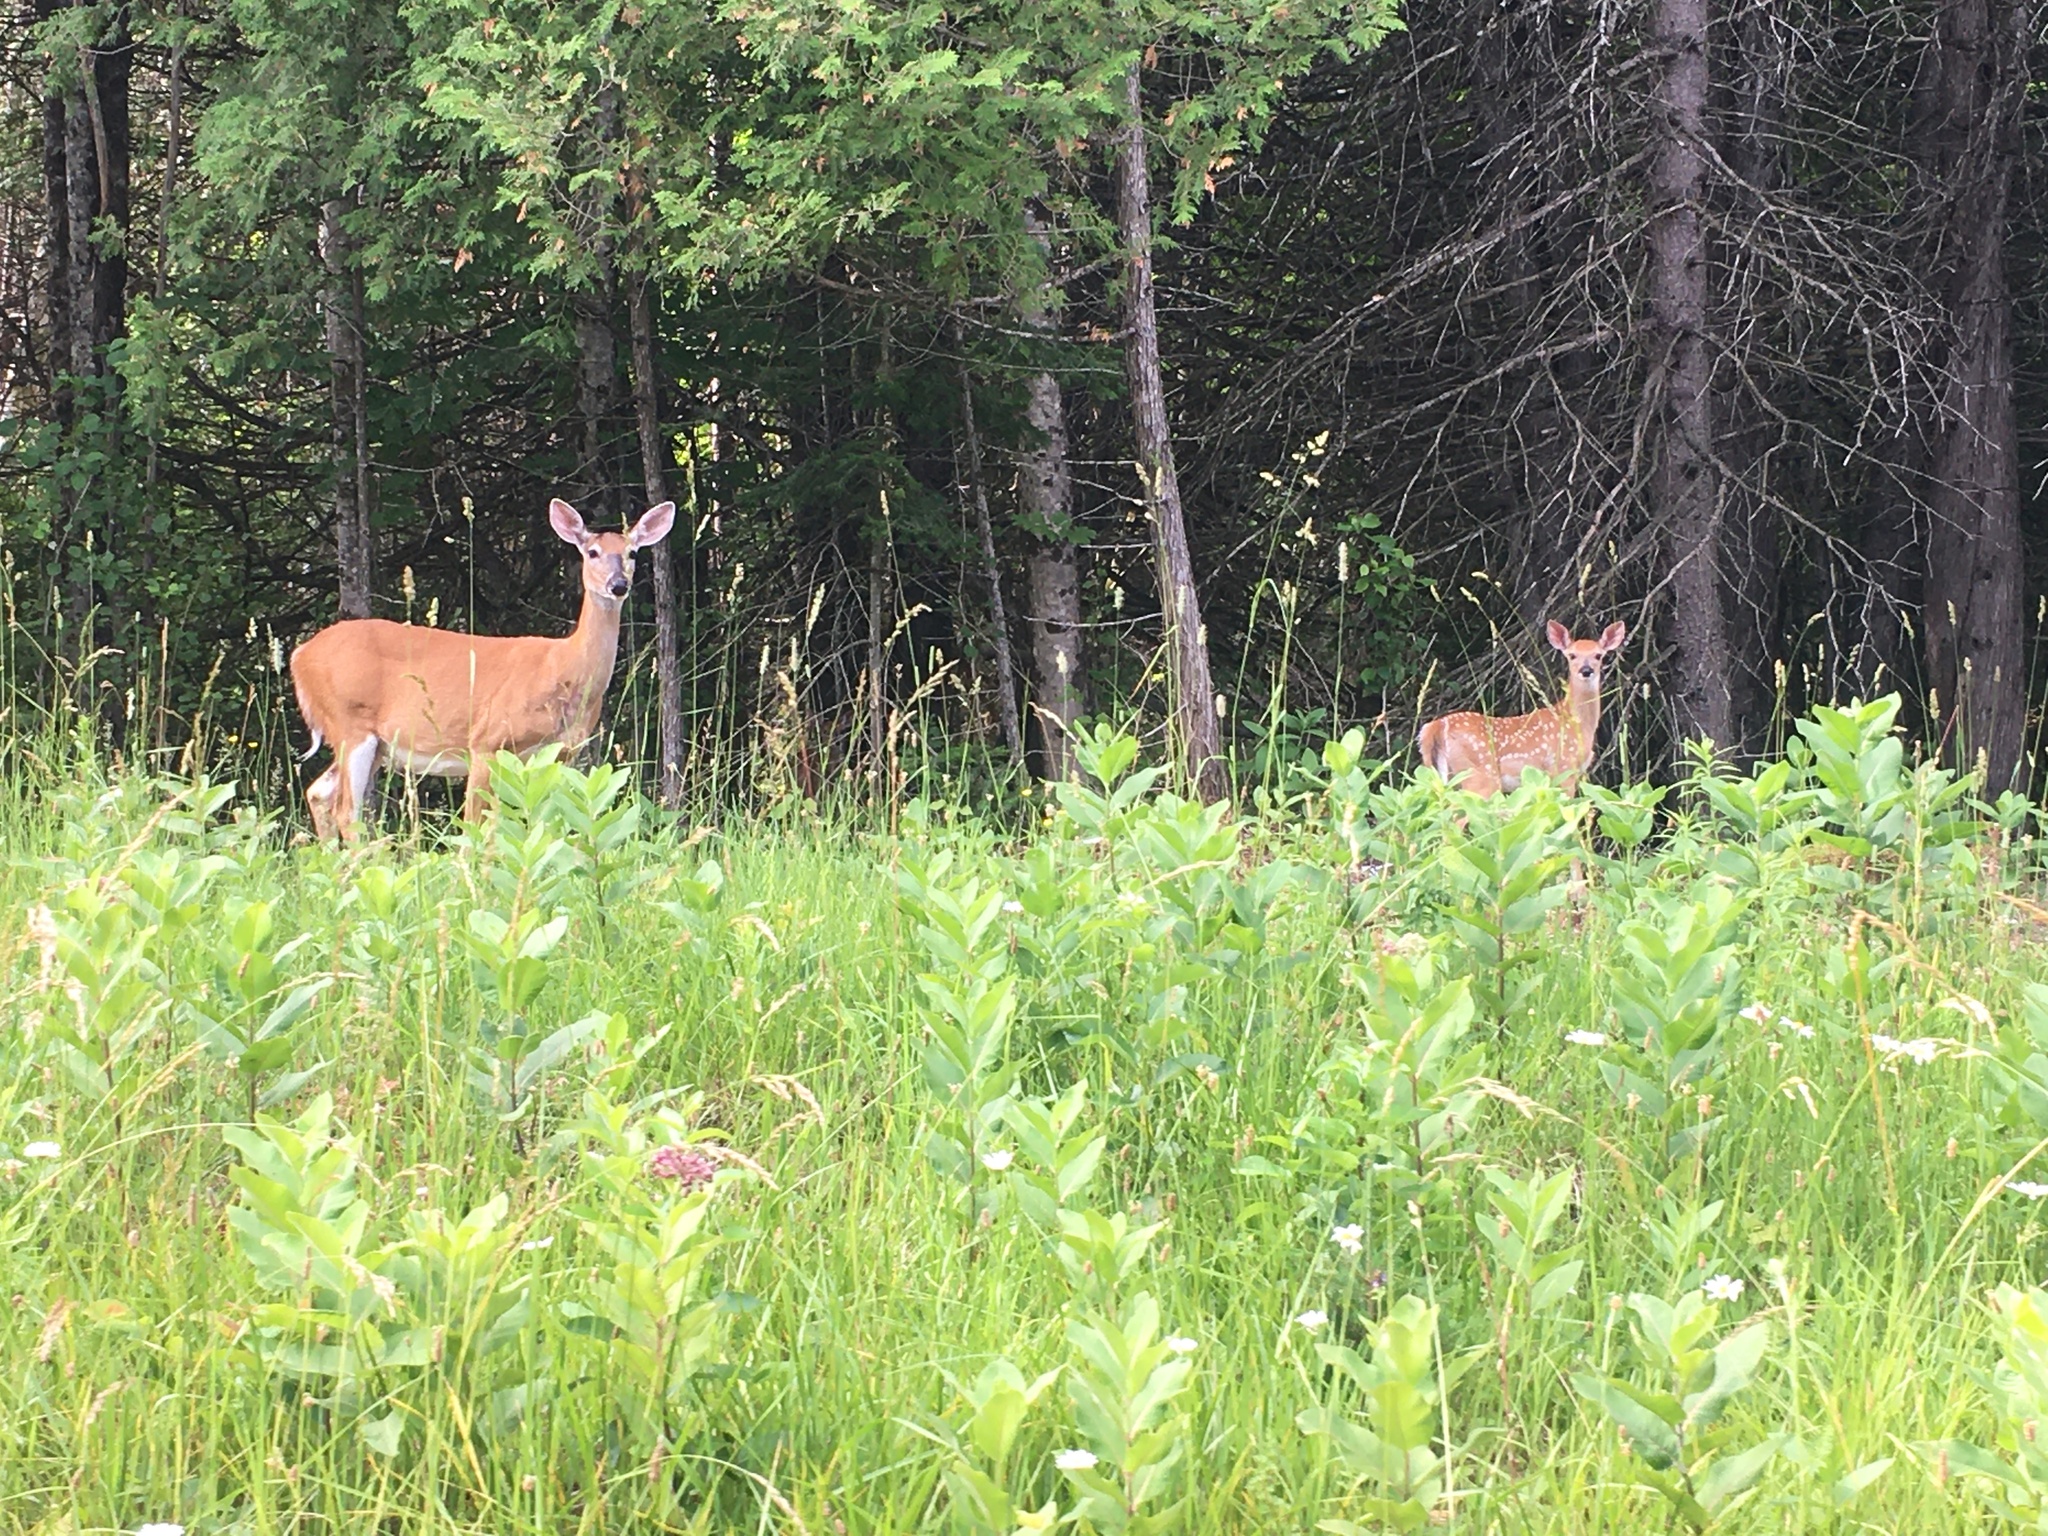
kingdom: Animalia
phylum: Chordata
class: Mammalia
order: Artiodactyla
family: Cervidae
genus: Odocoileus
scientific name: Odocoileus virginianus
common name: White-tailed deer
